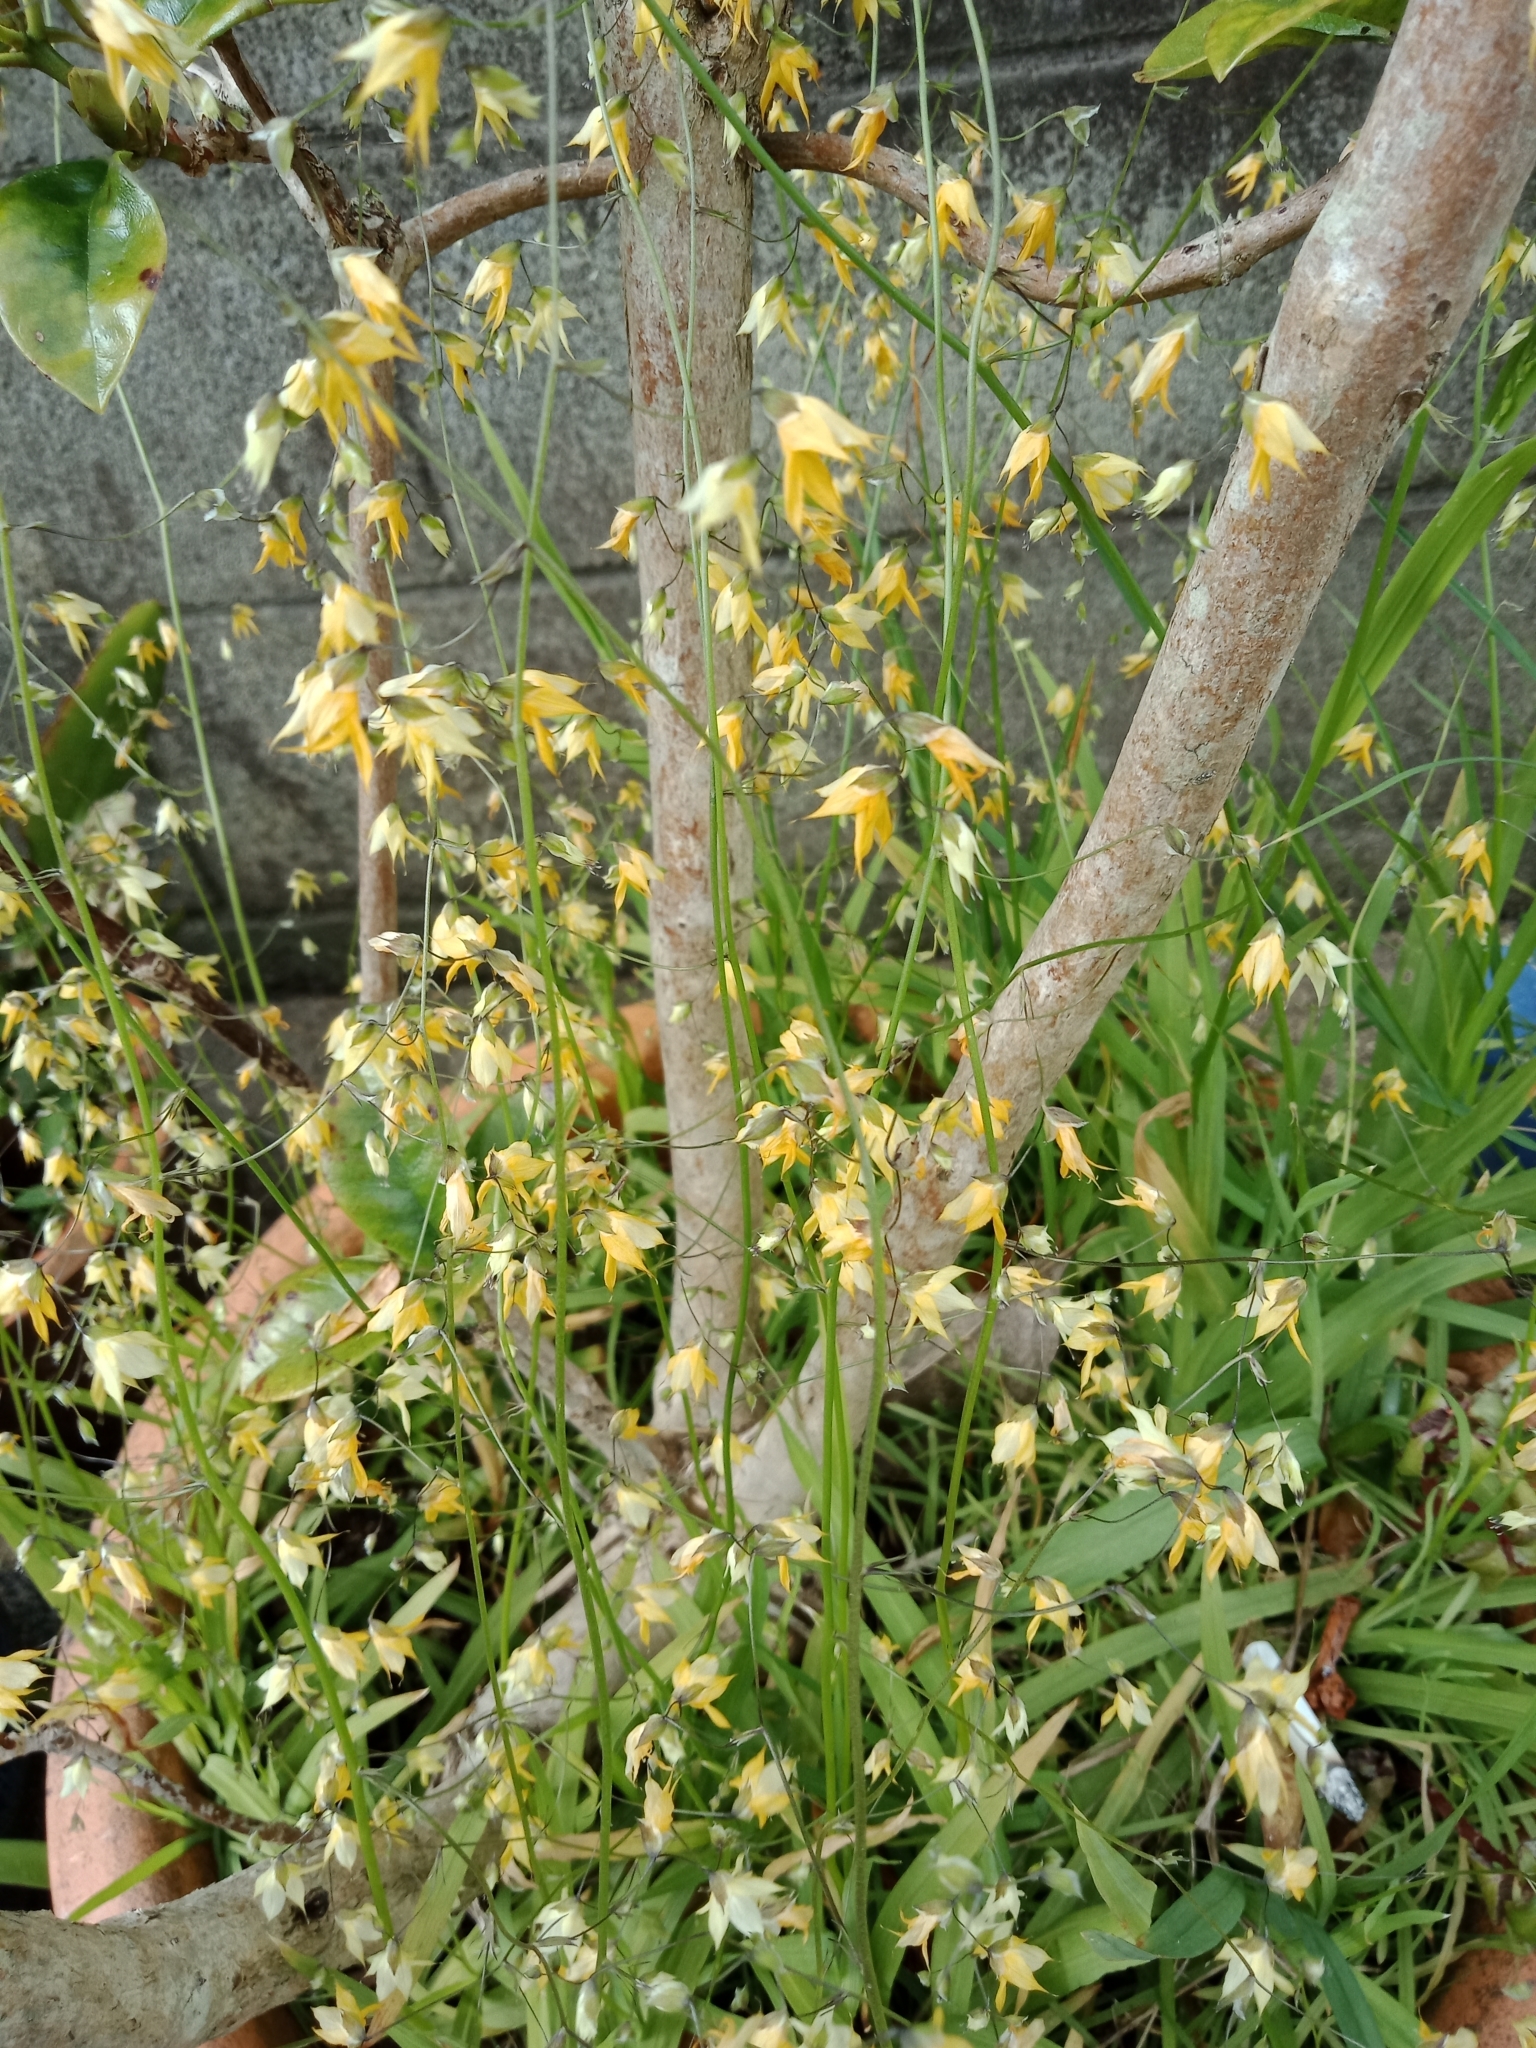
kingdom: Plantae
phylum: Tracheophyta
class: Liliopsida
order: Asparagales
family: Iridaceae
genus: Melasphaerula
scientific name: Melasphaerula graminea
